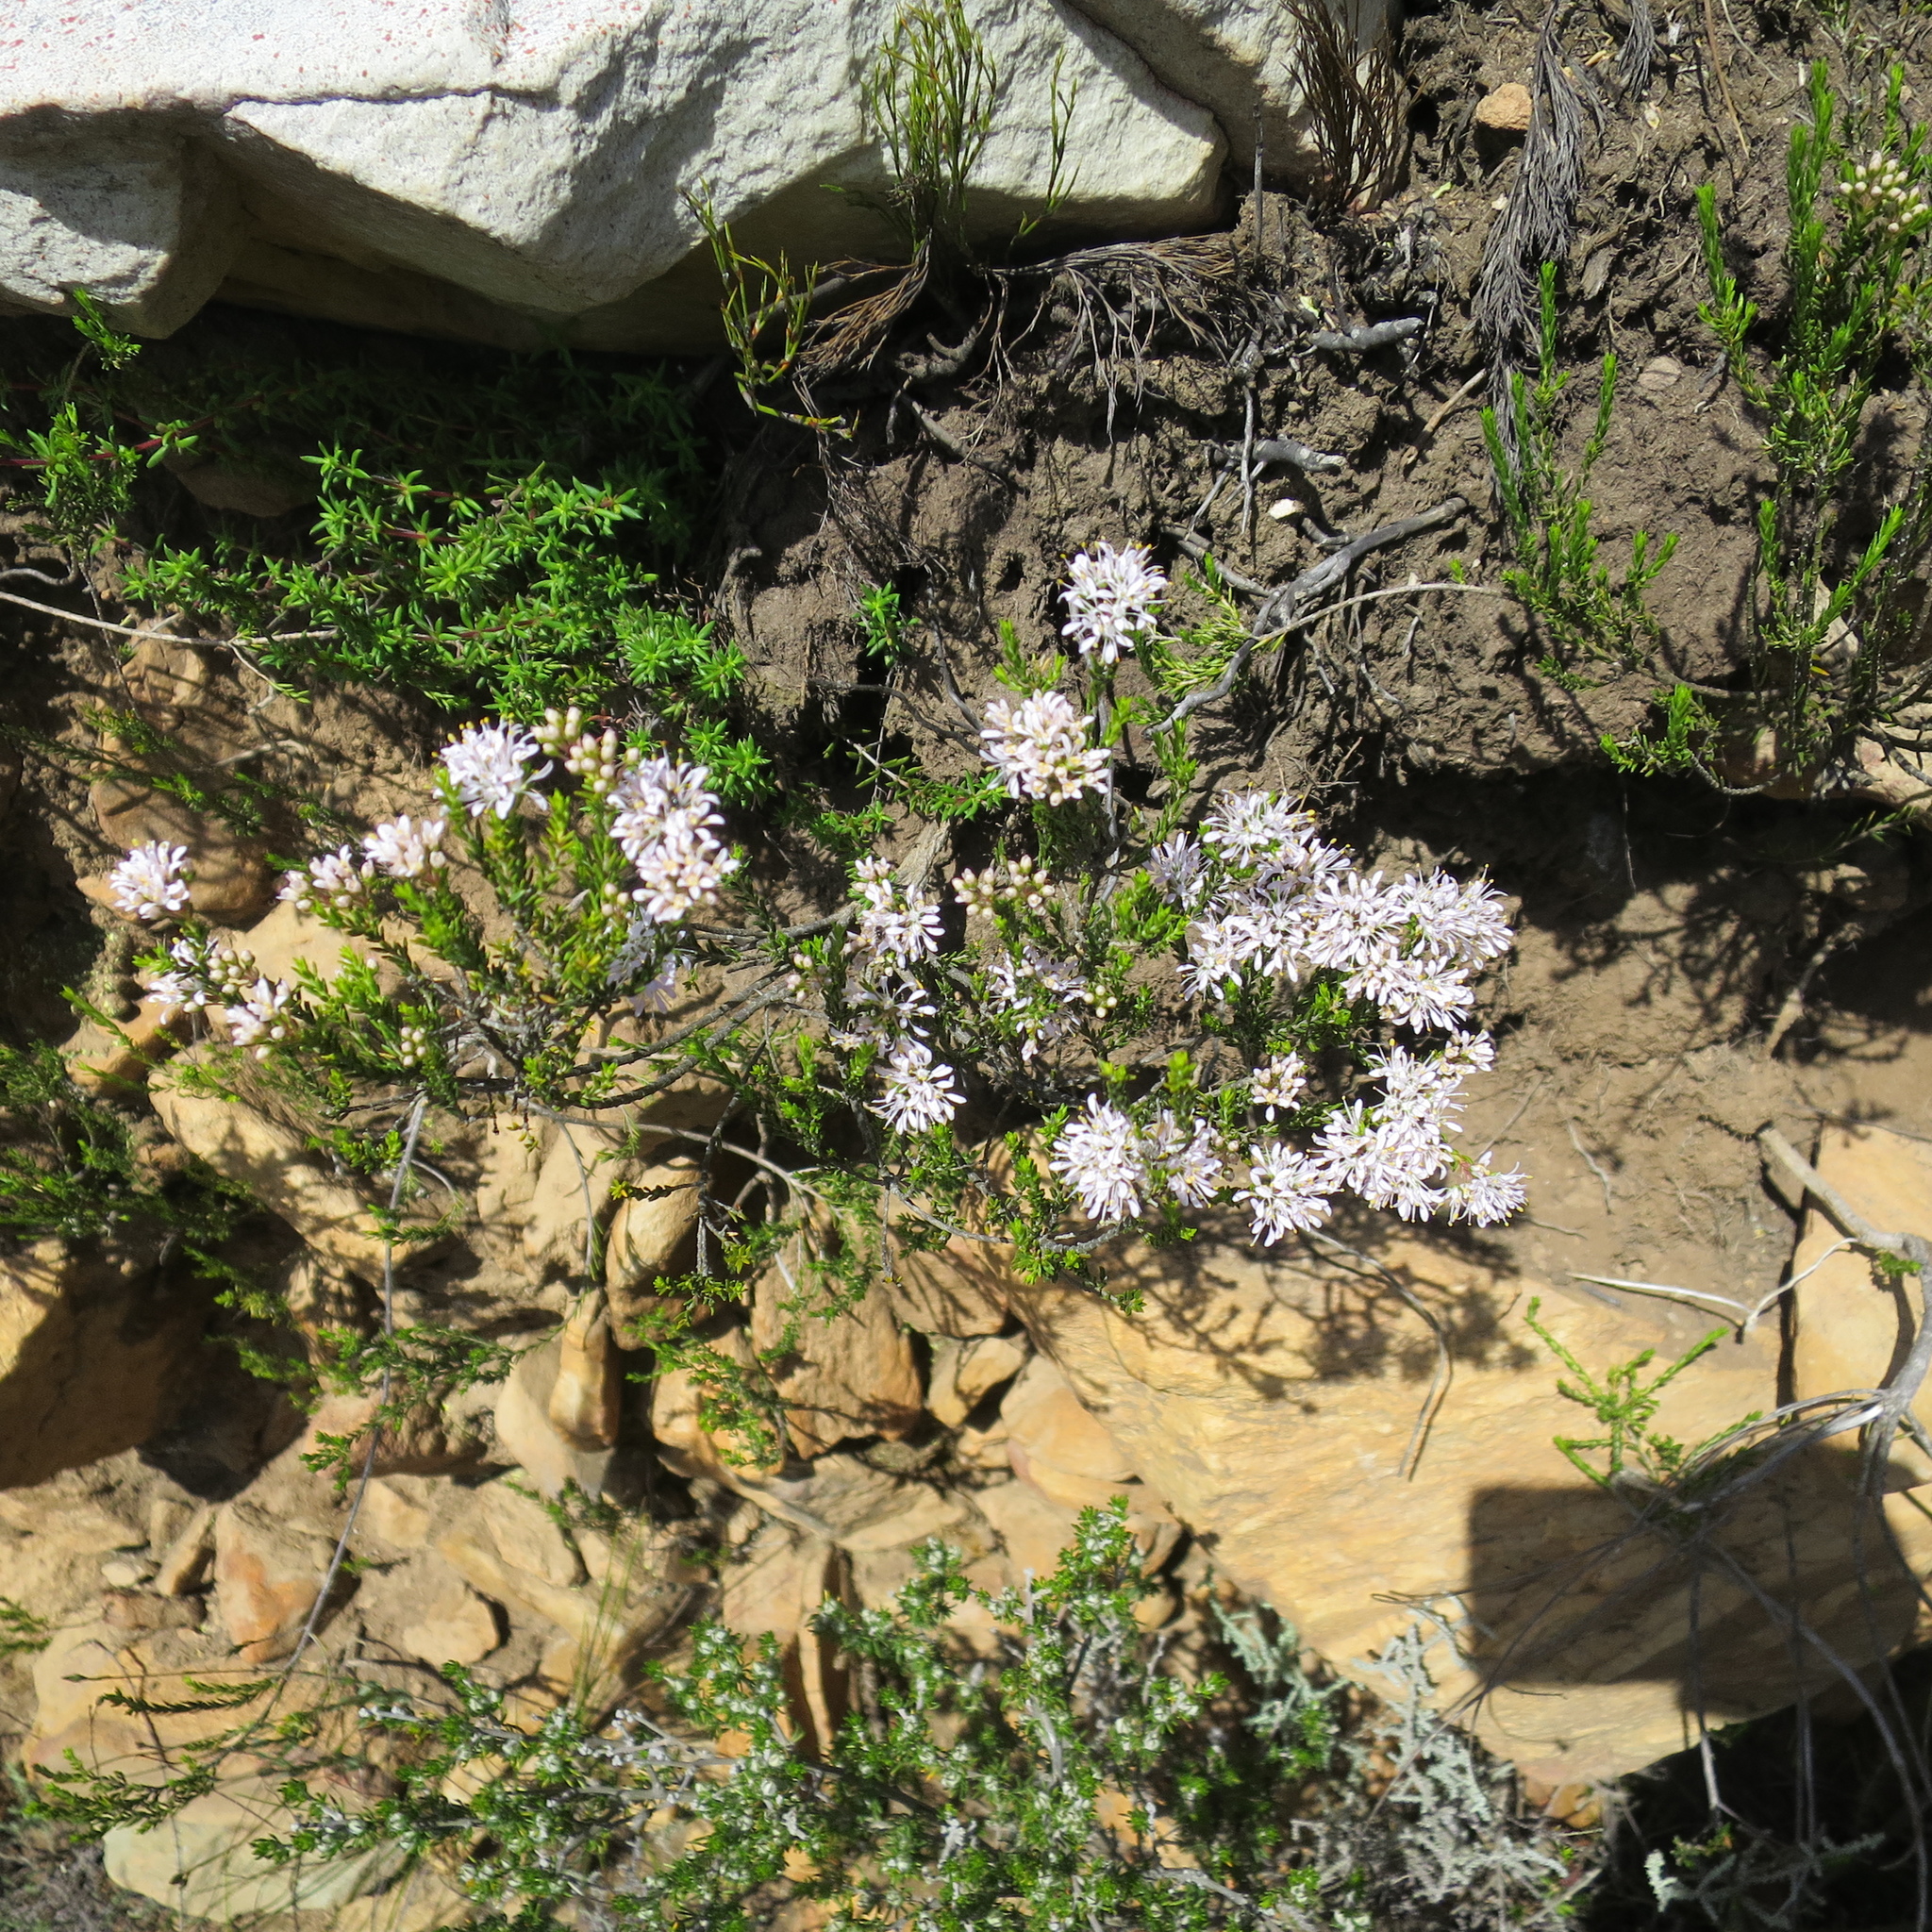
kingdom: Plantae
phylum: Tracheophyta
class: Magnoliopsida
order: Sapindales
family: Rutaceae
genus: Agathosma
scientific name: Agathosma capensis
